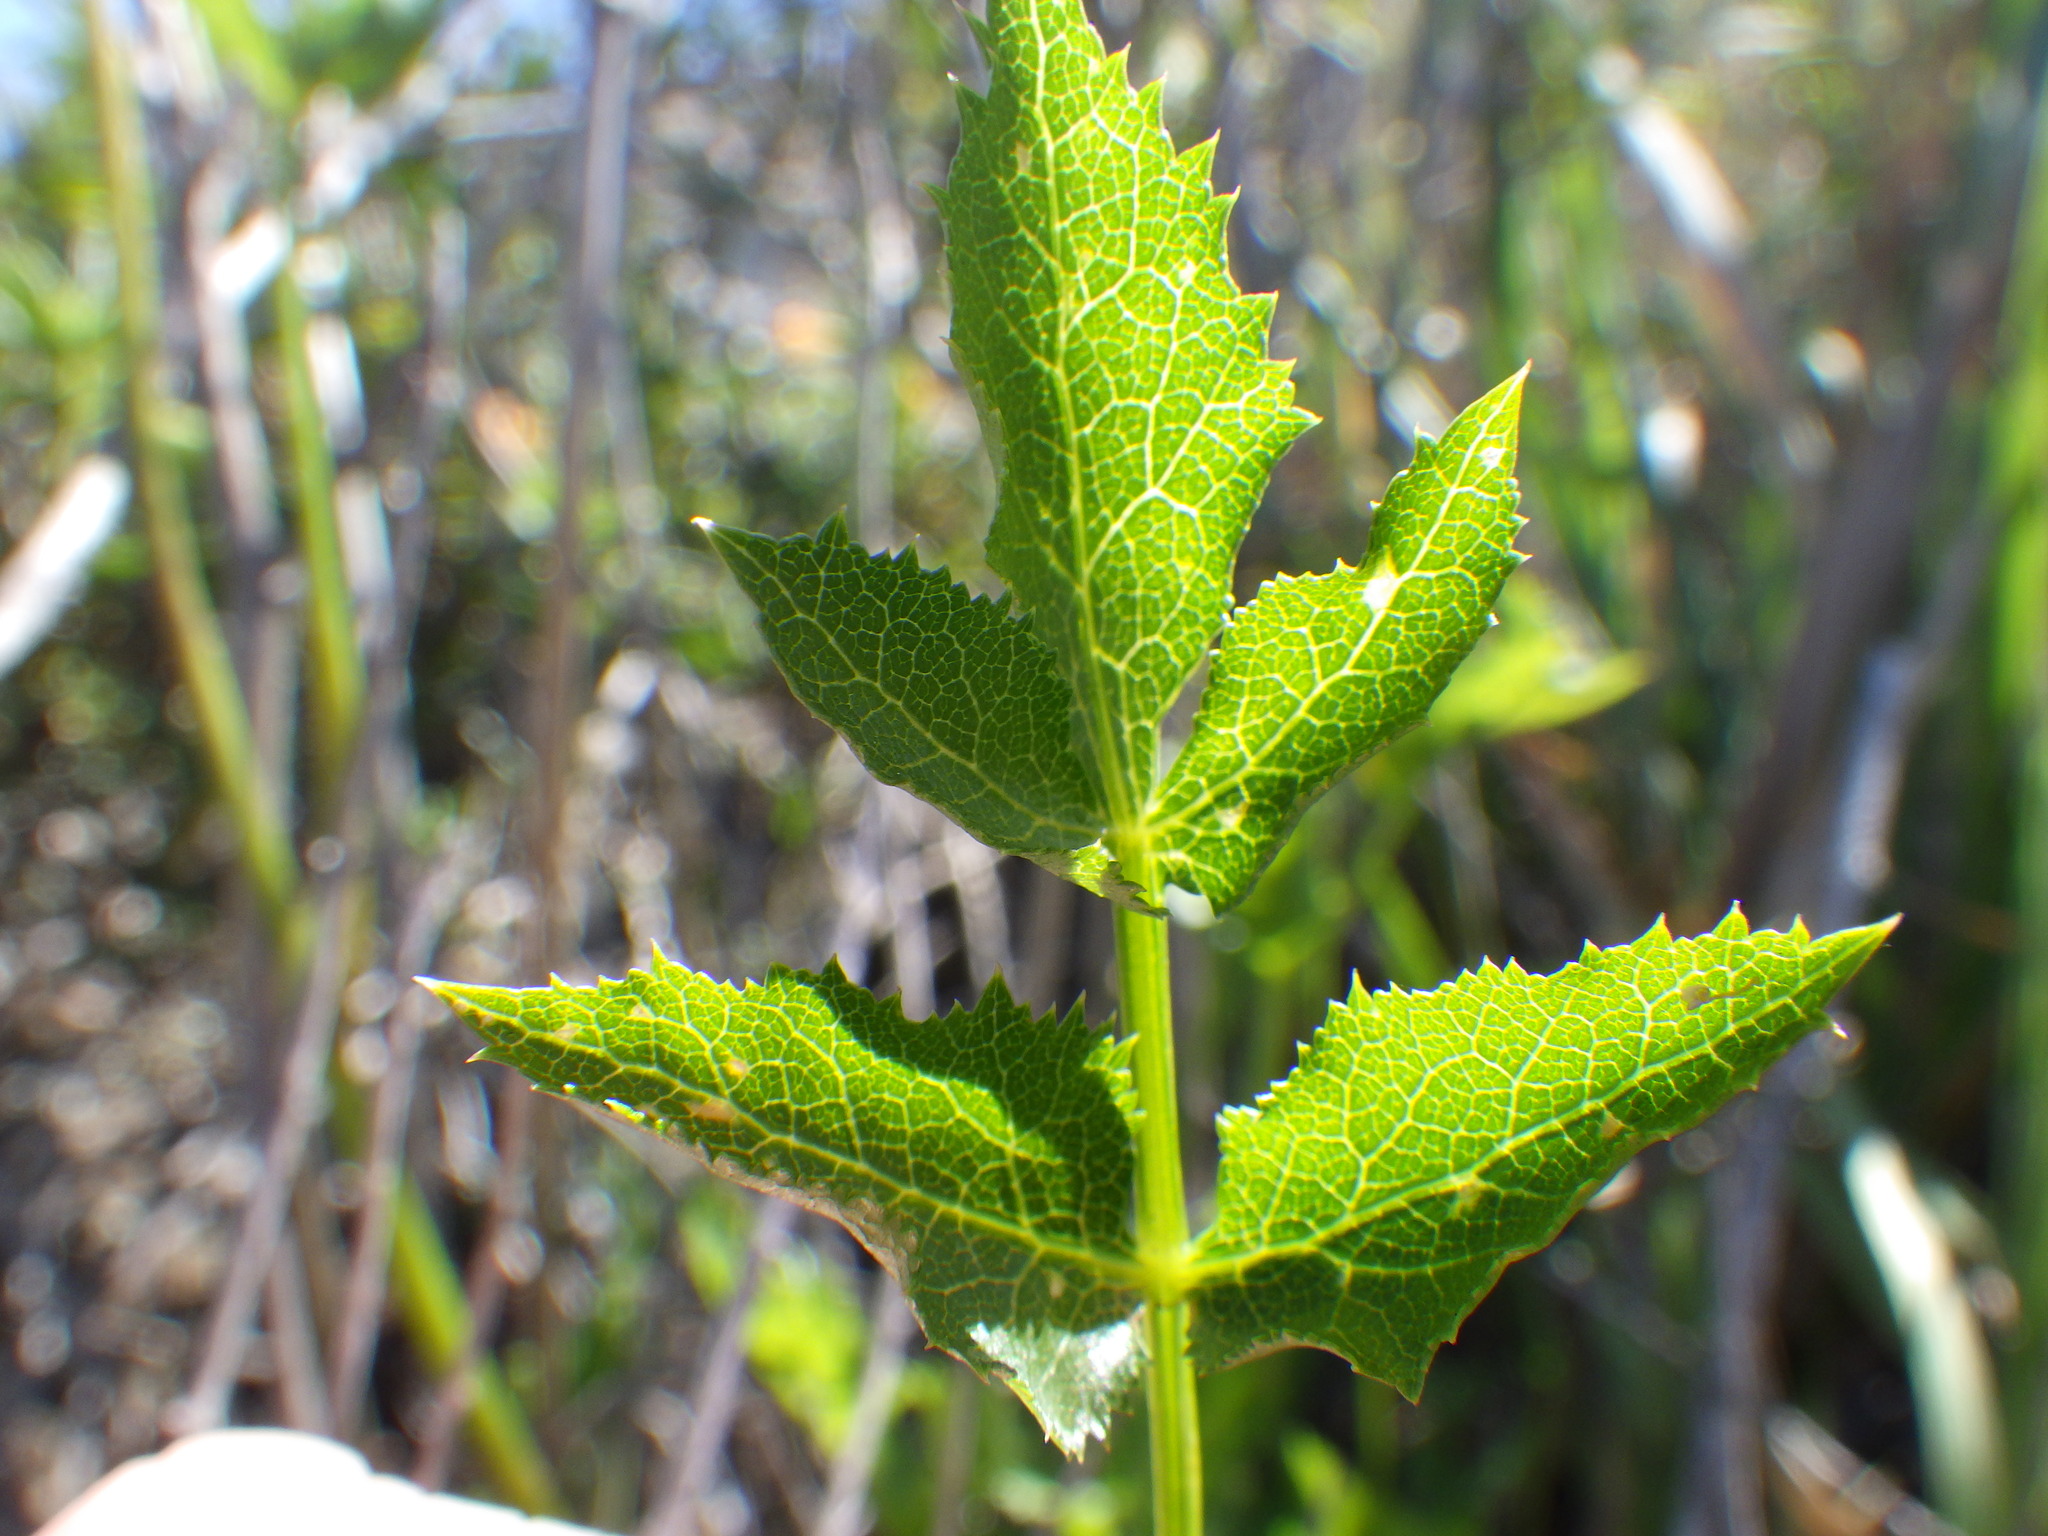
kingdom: Plantae
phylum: Tracheophyta
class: Magnoliopsida
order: Apiales
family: Apiaceae
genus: Tauschia
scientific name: Tauschia arguta
